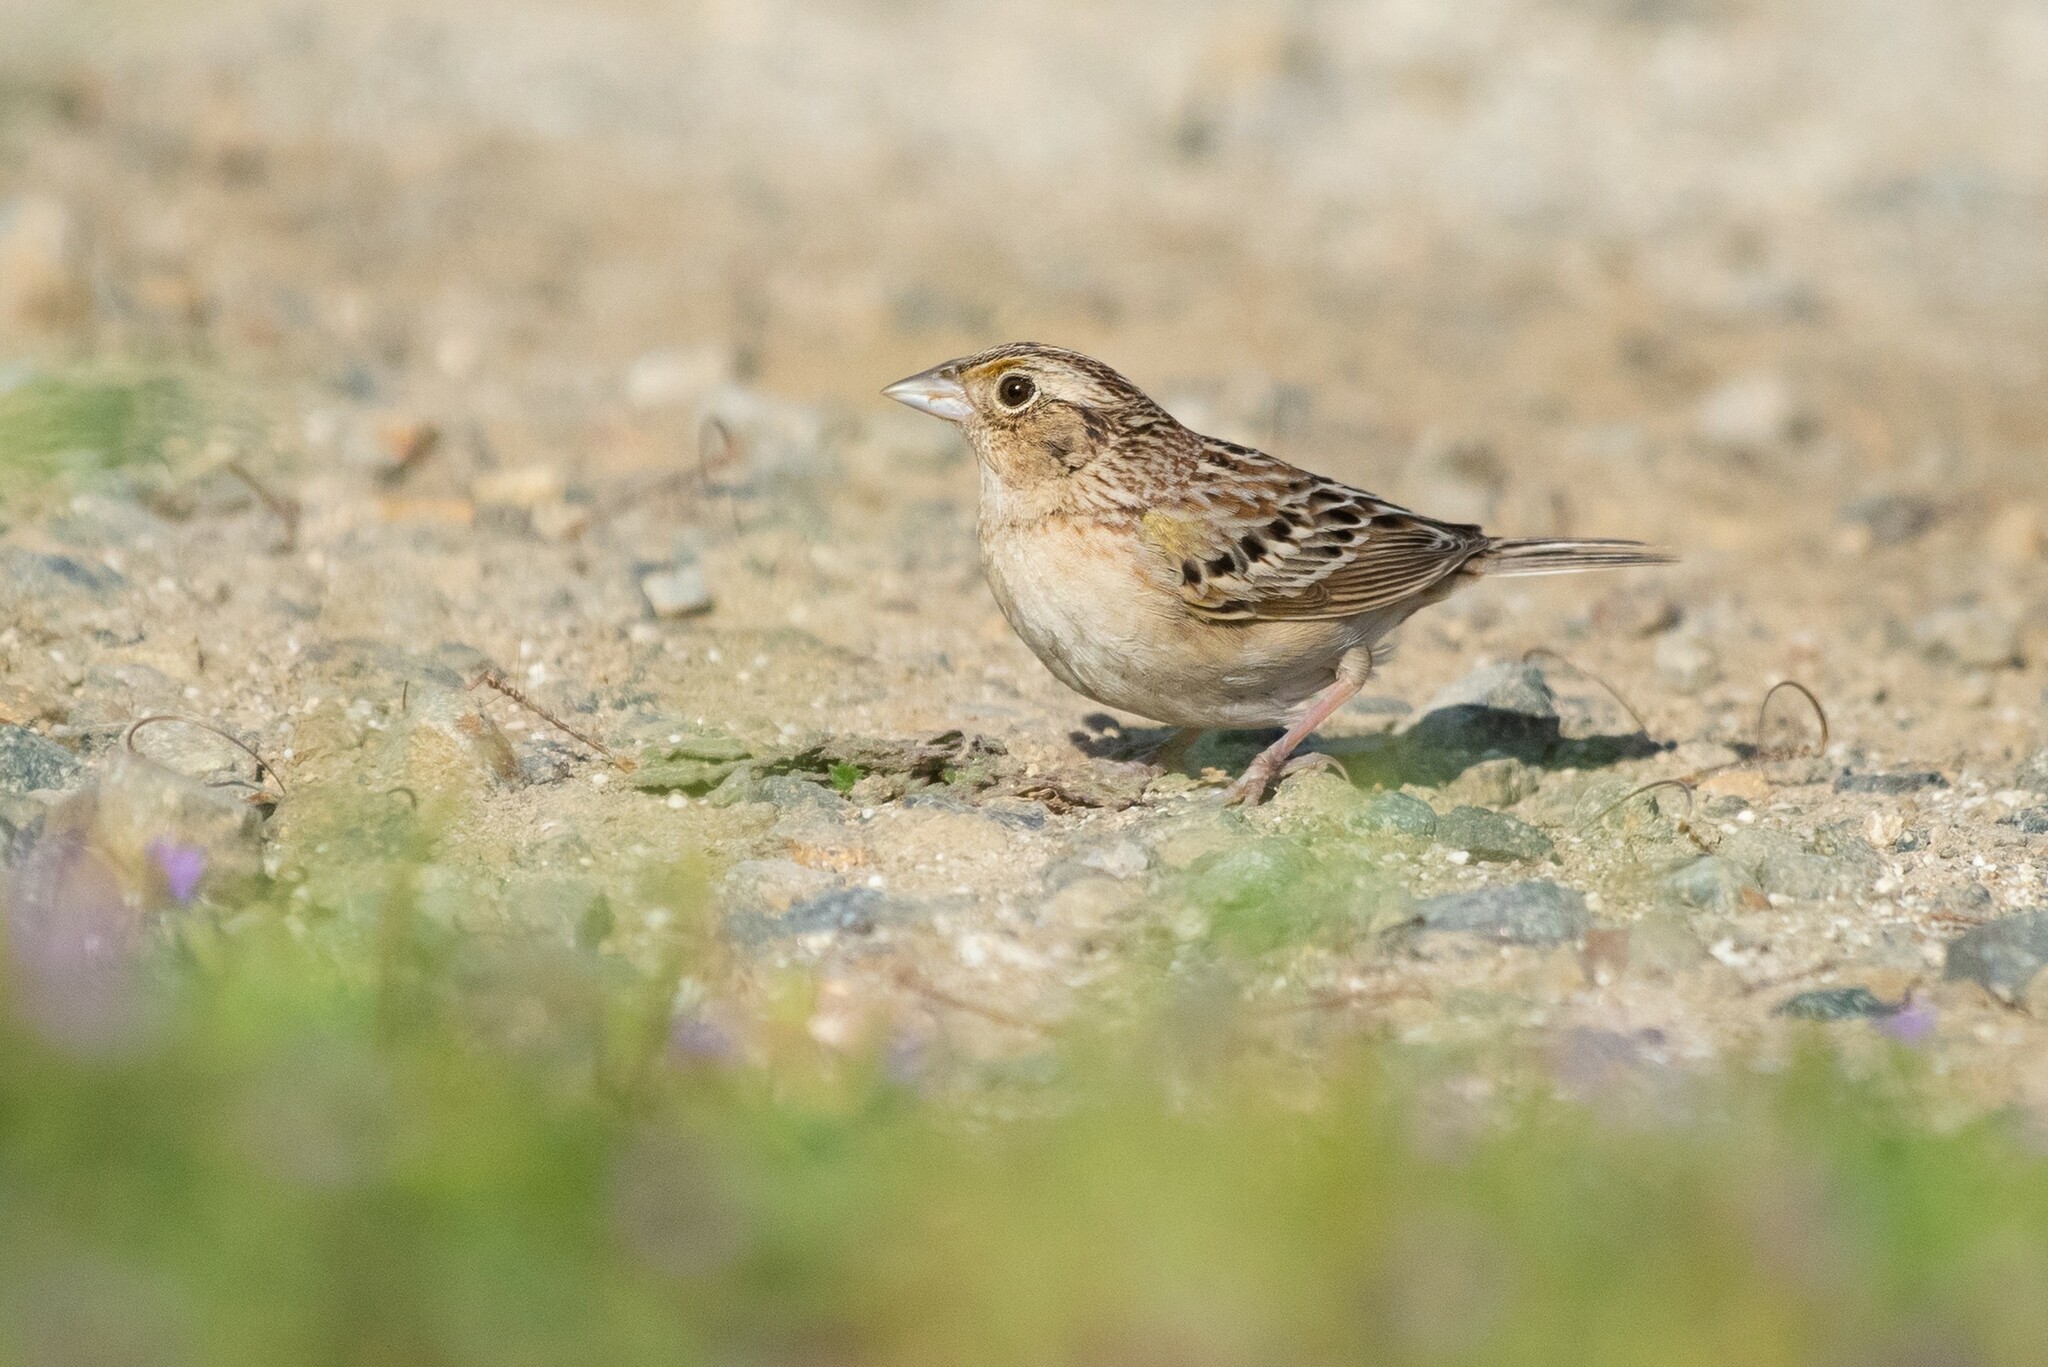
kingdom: Animalia
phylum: Chordata
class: Aves
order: Passeriformes
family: Passerellidae
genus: Ammodramus
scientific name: Ammodramus savannarum
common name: Grasshopper sparrow
